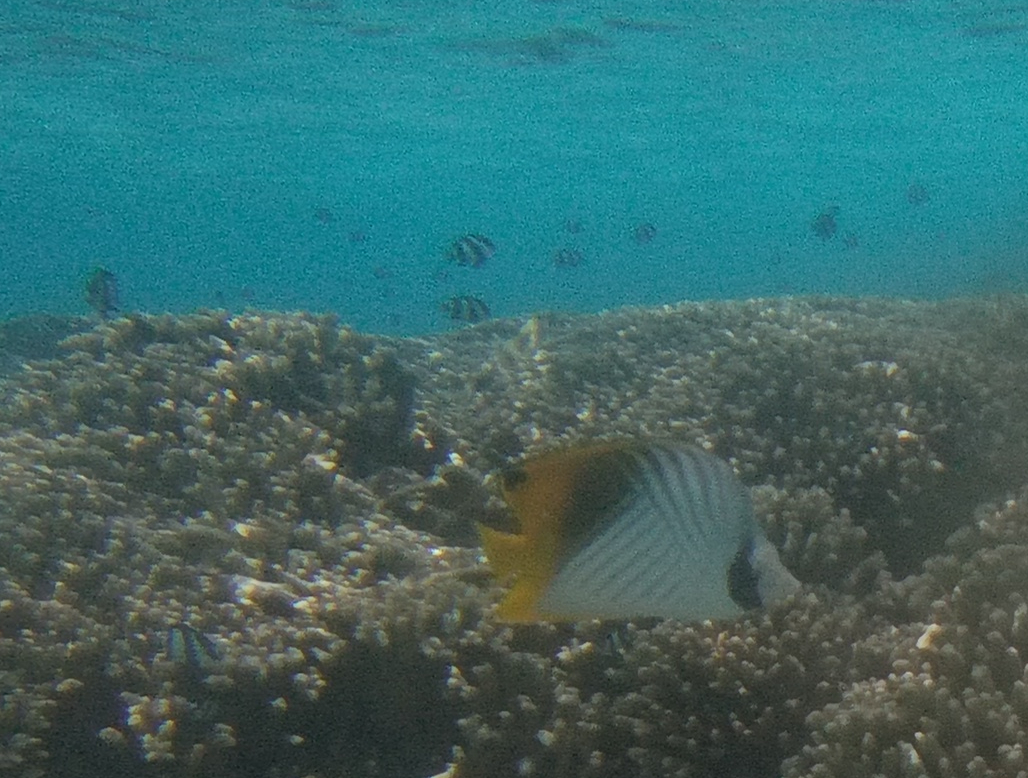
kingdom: Animalia
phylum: Chordata
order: Perciformes
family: Chaetodontidae
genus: Chaetodon
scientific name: Chaetodon auriga
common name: Threadfin butterflyfish
